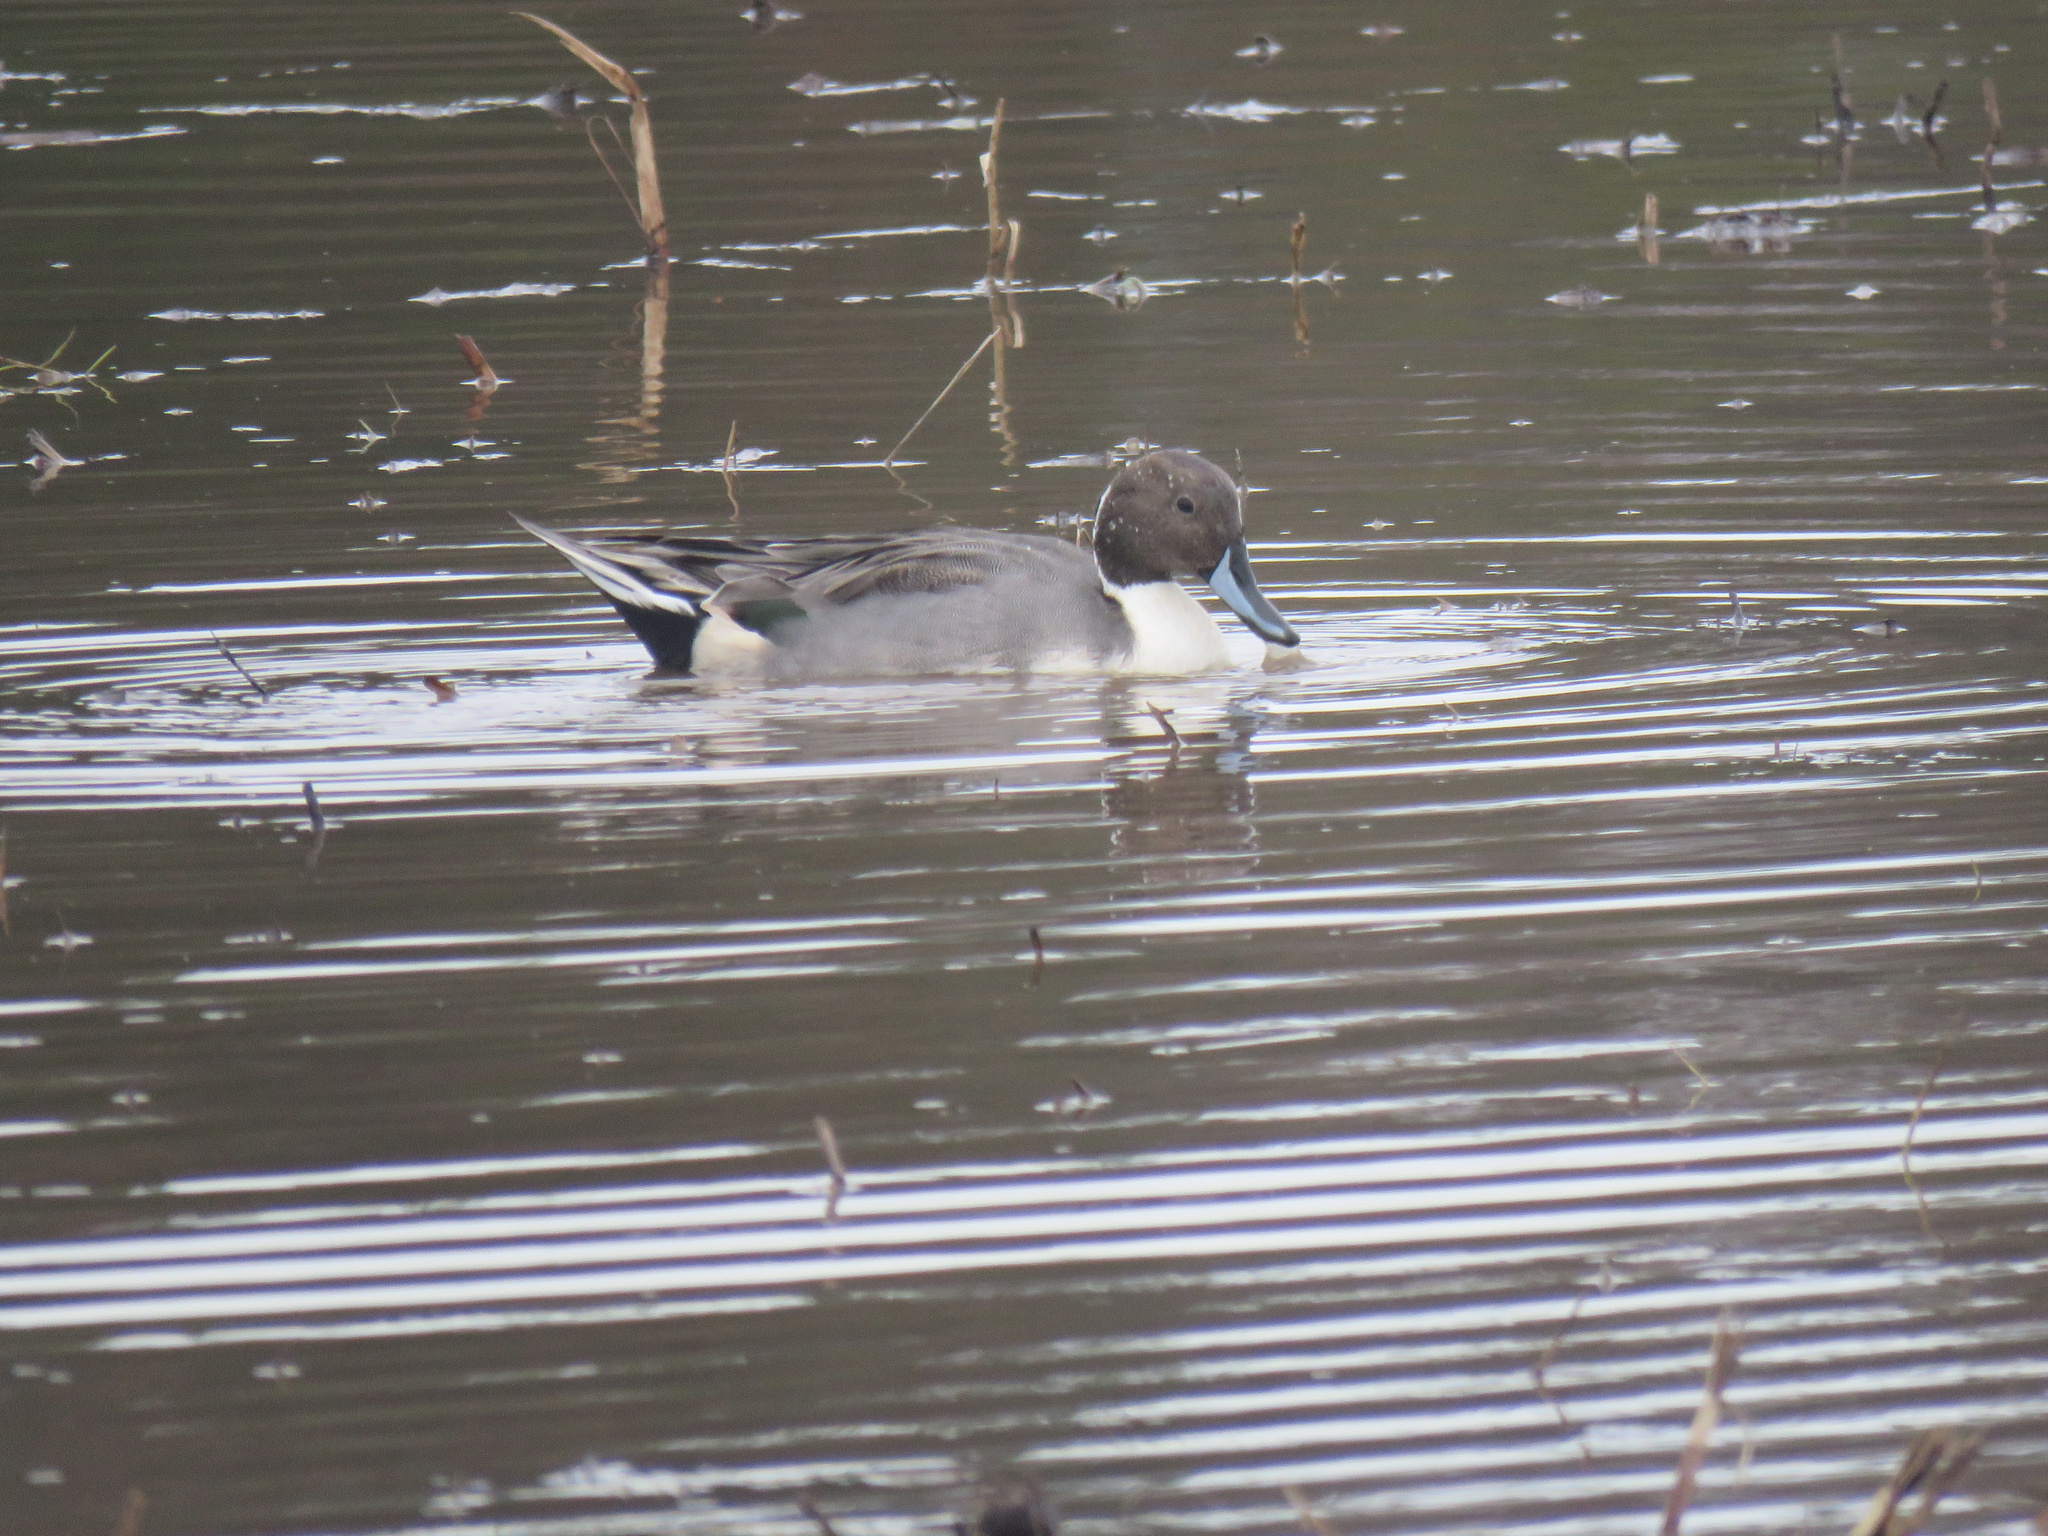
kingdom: Animalia
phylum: Chordata
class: Aves
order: Anseriformes
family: Anatidae
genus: Anas
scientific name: Anas acuta
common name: Northern pintail
